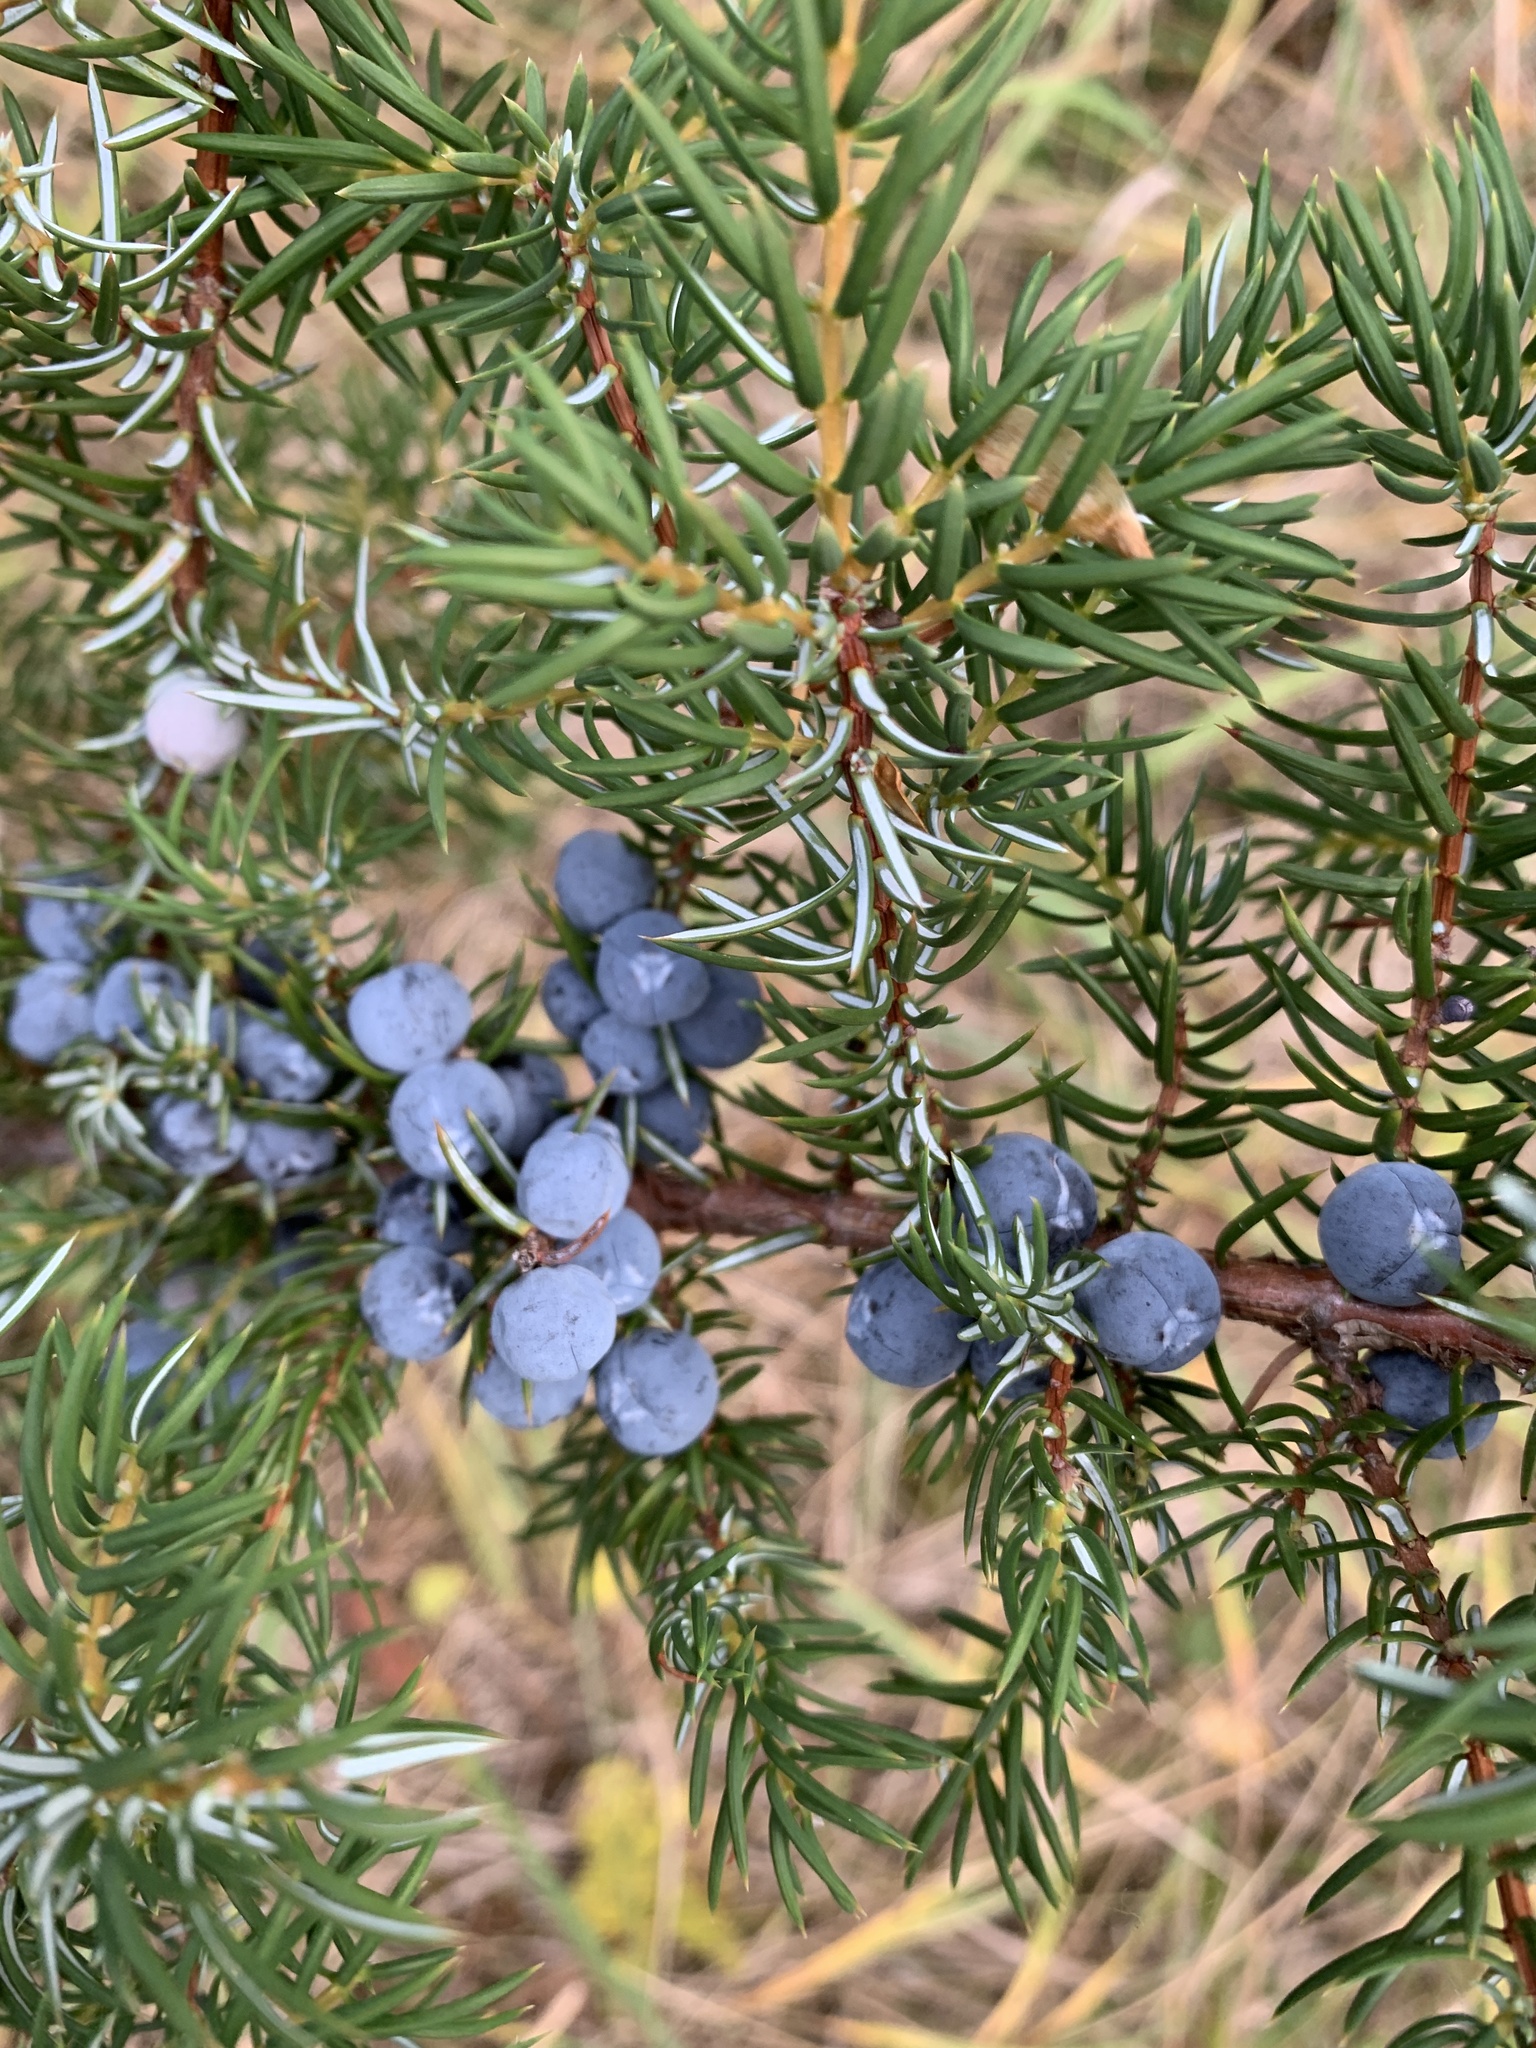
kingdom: Plantae
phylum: Tracheophyta
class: Pinopsida
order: Pinales
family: Cupressaceae
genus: Juniperus
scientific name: Juniperus communis
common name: Common juniper
